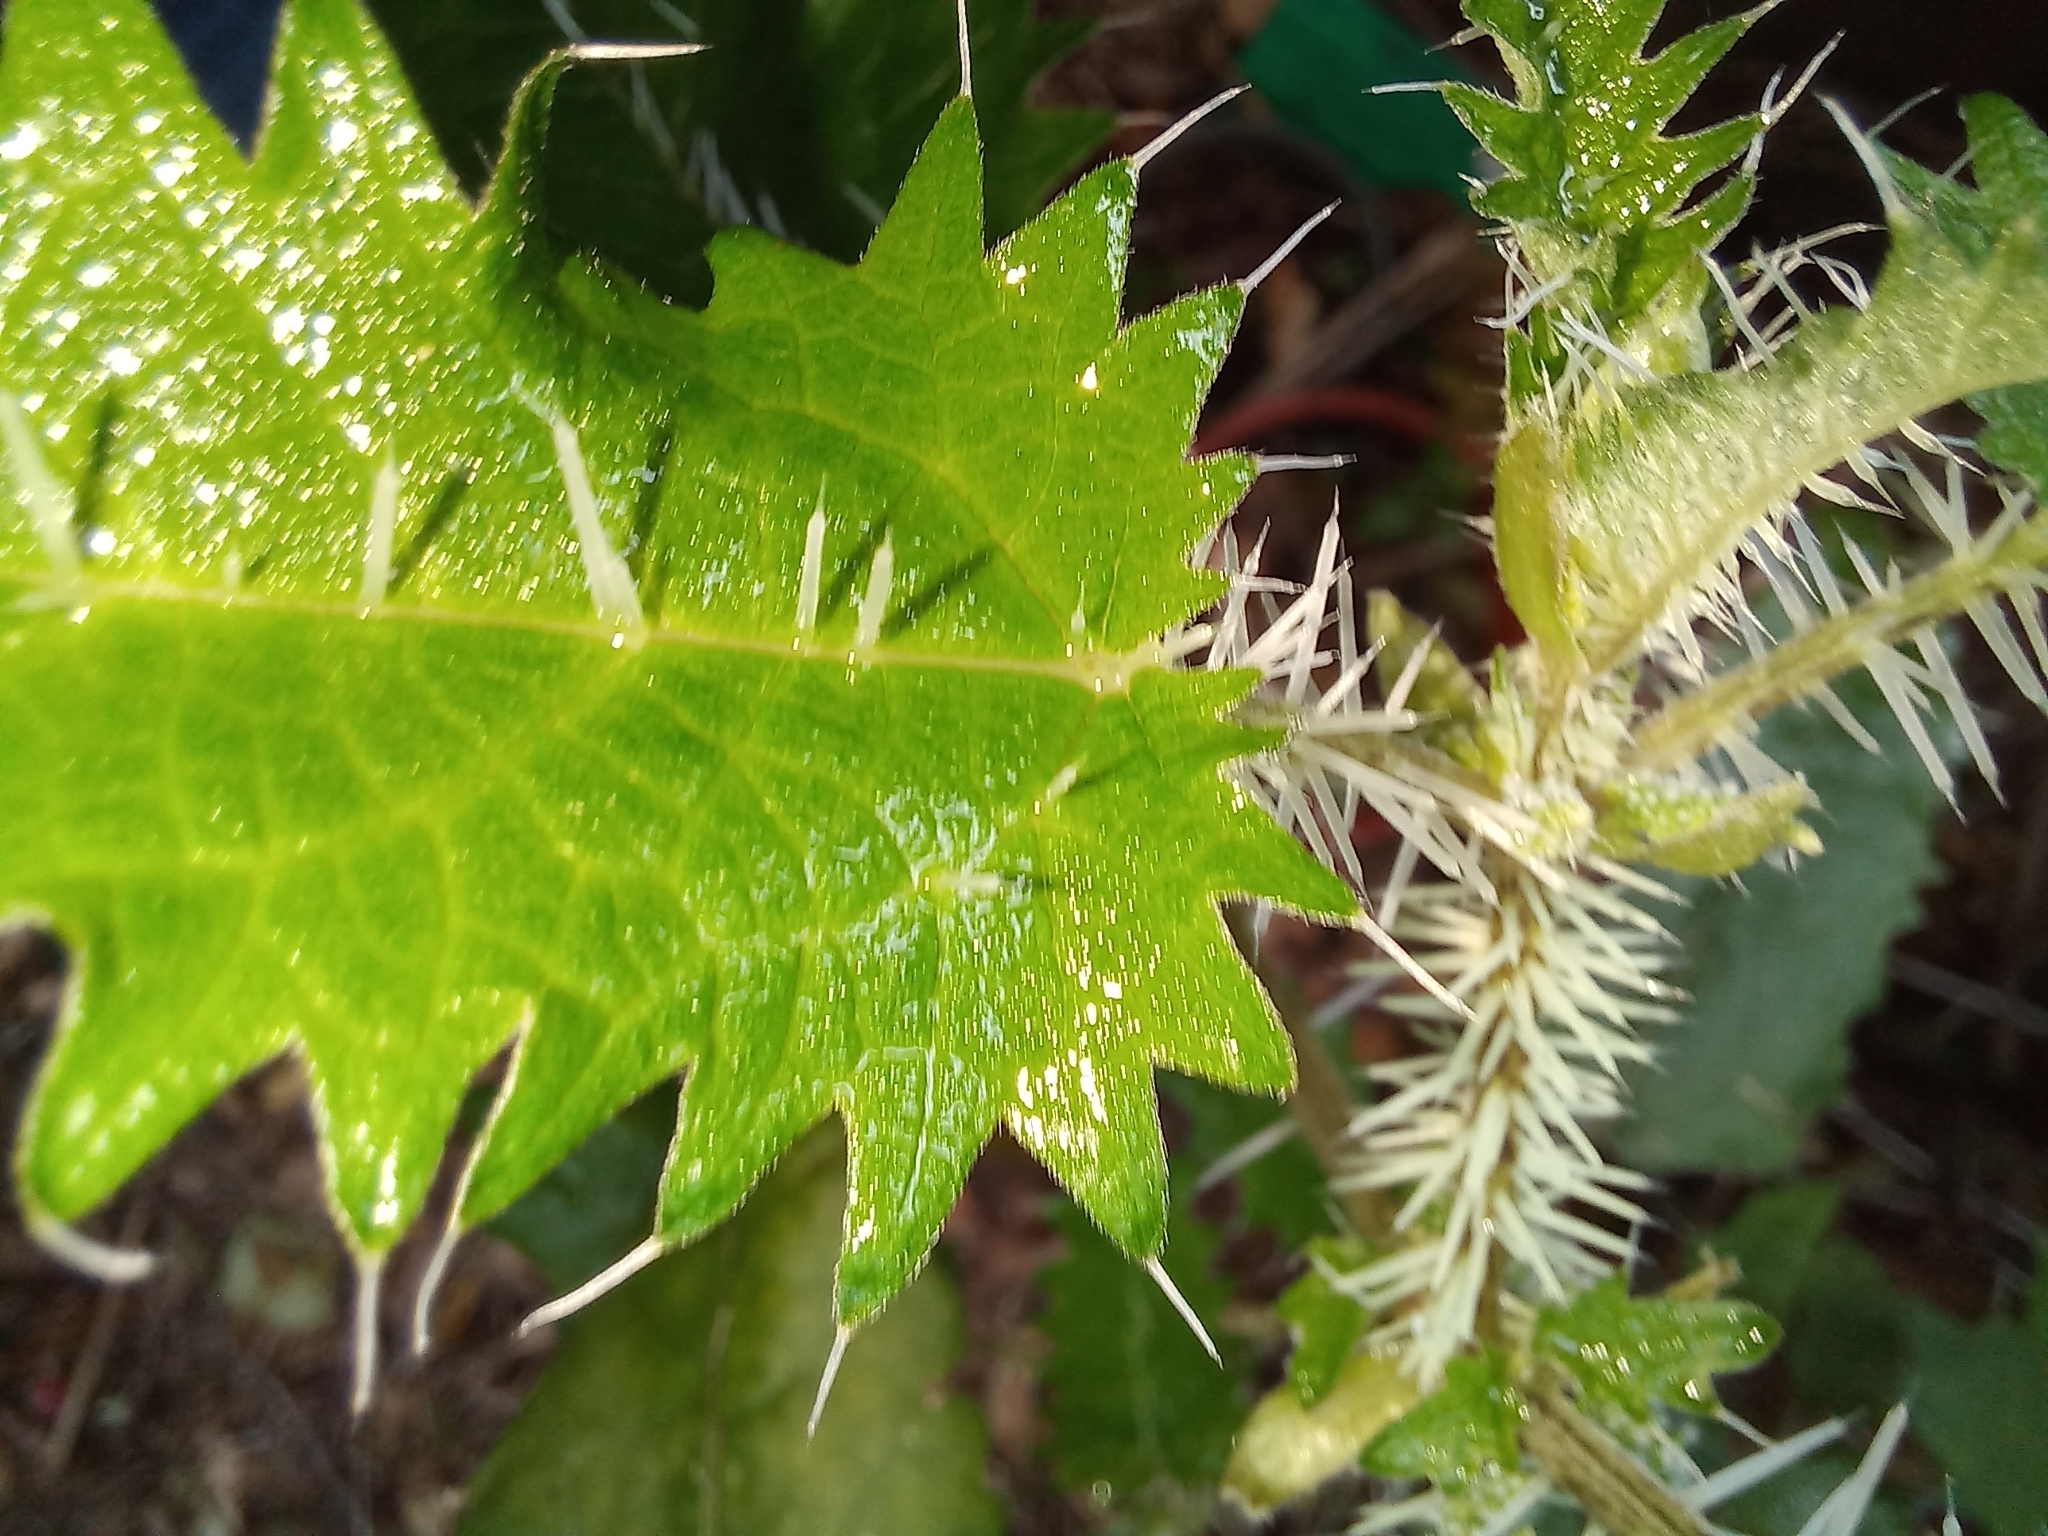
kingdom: Plantae
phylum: Tracheophyta
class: Magnoliopsida
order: Rosales
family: Urticaceae
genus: Urtica
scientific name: Urtica ferox
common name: Tree nettle
